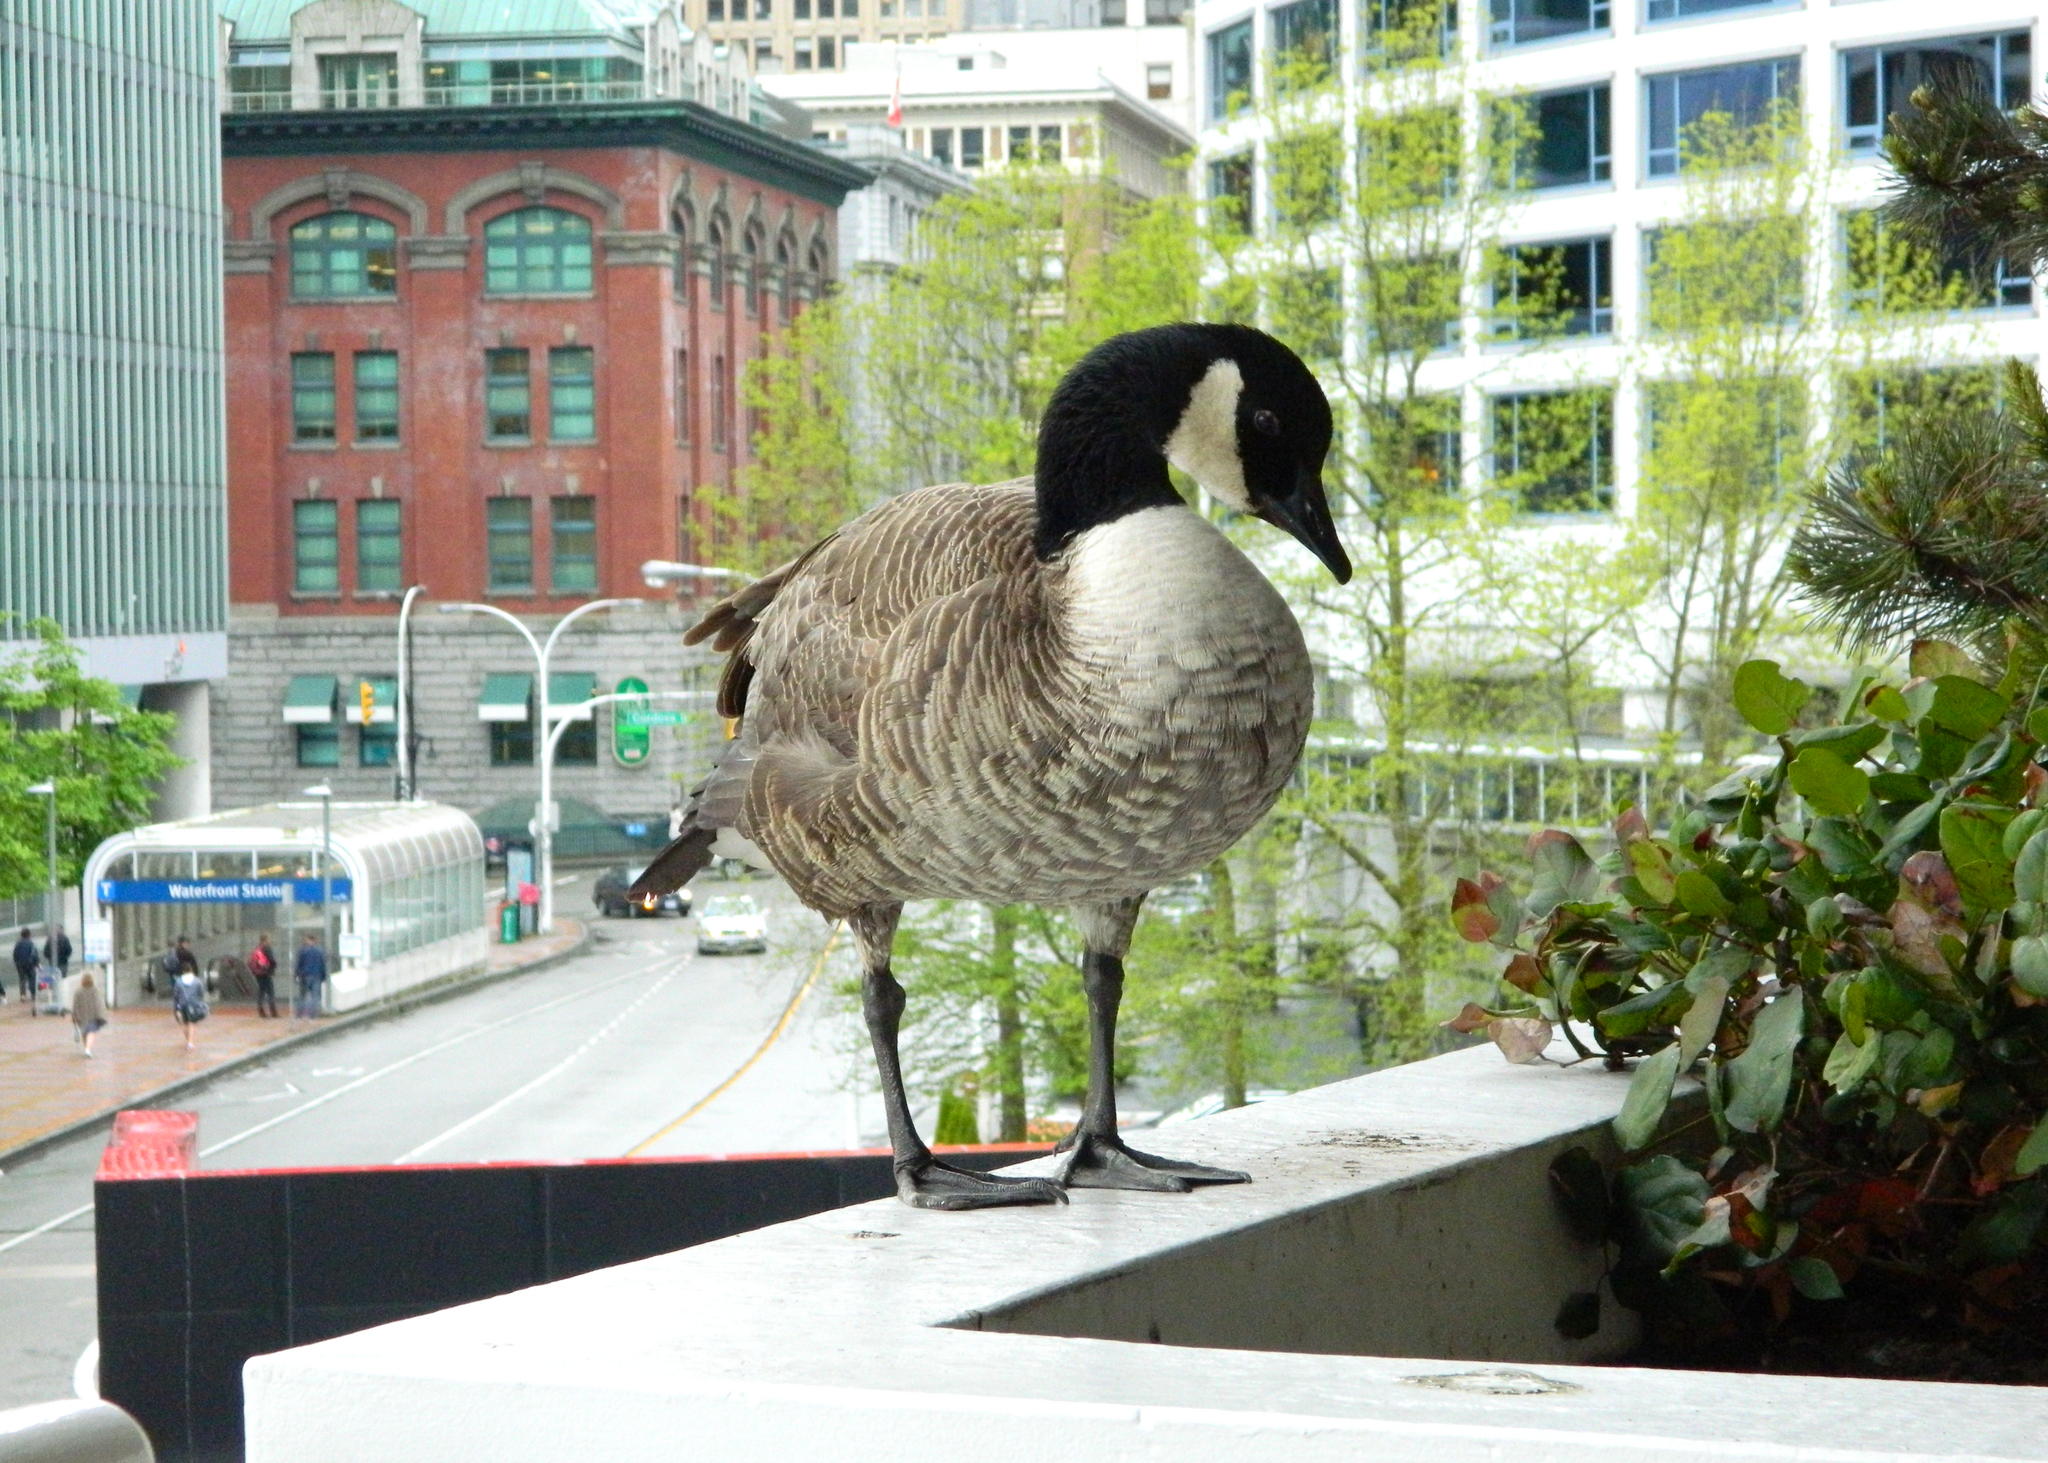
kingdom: Animalia
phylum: Chordata
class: Aves
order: Anseriformes
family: Anatidae
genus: Branta
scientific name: Branta canadensis
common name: Canada goose
